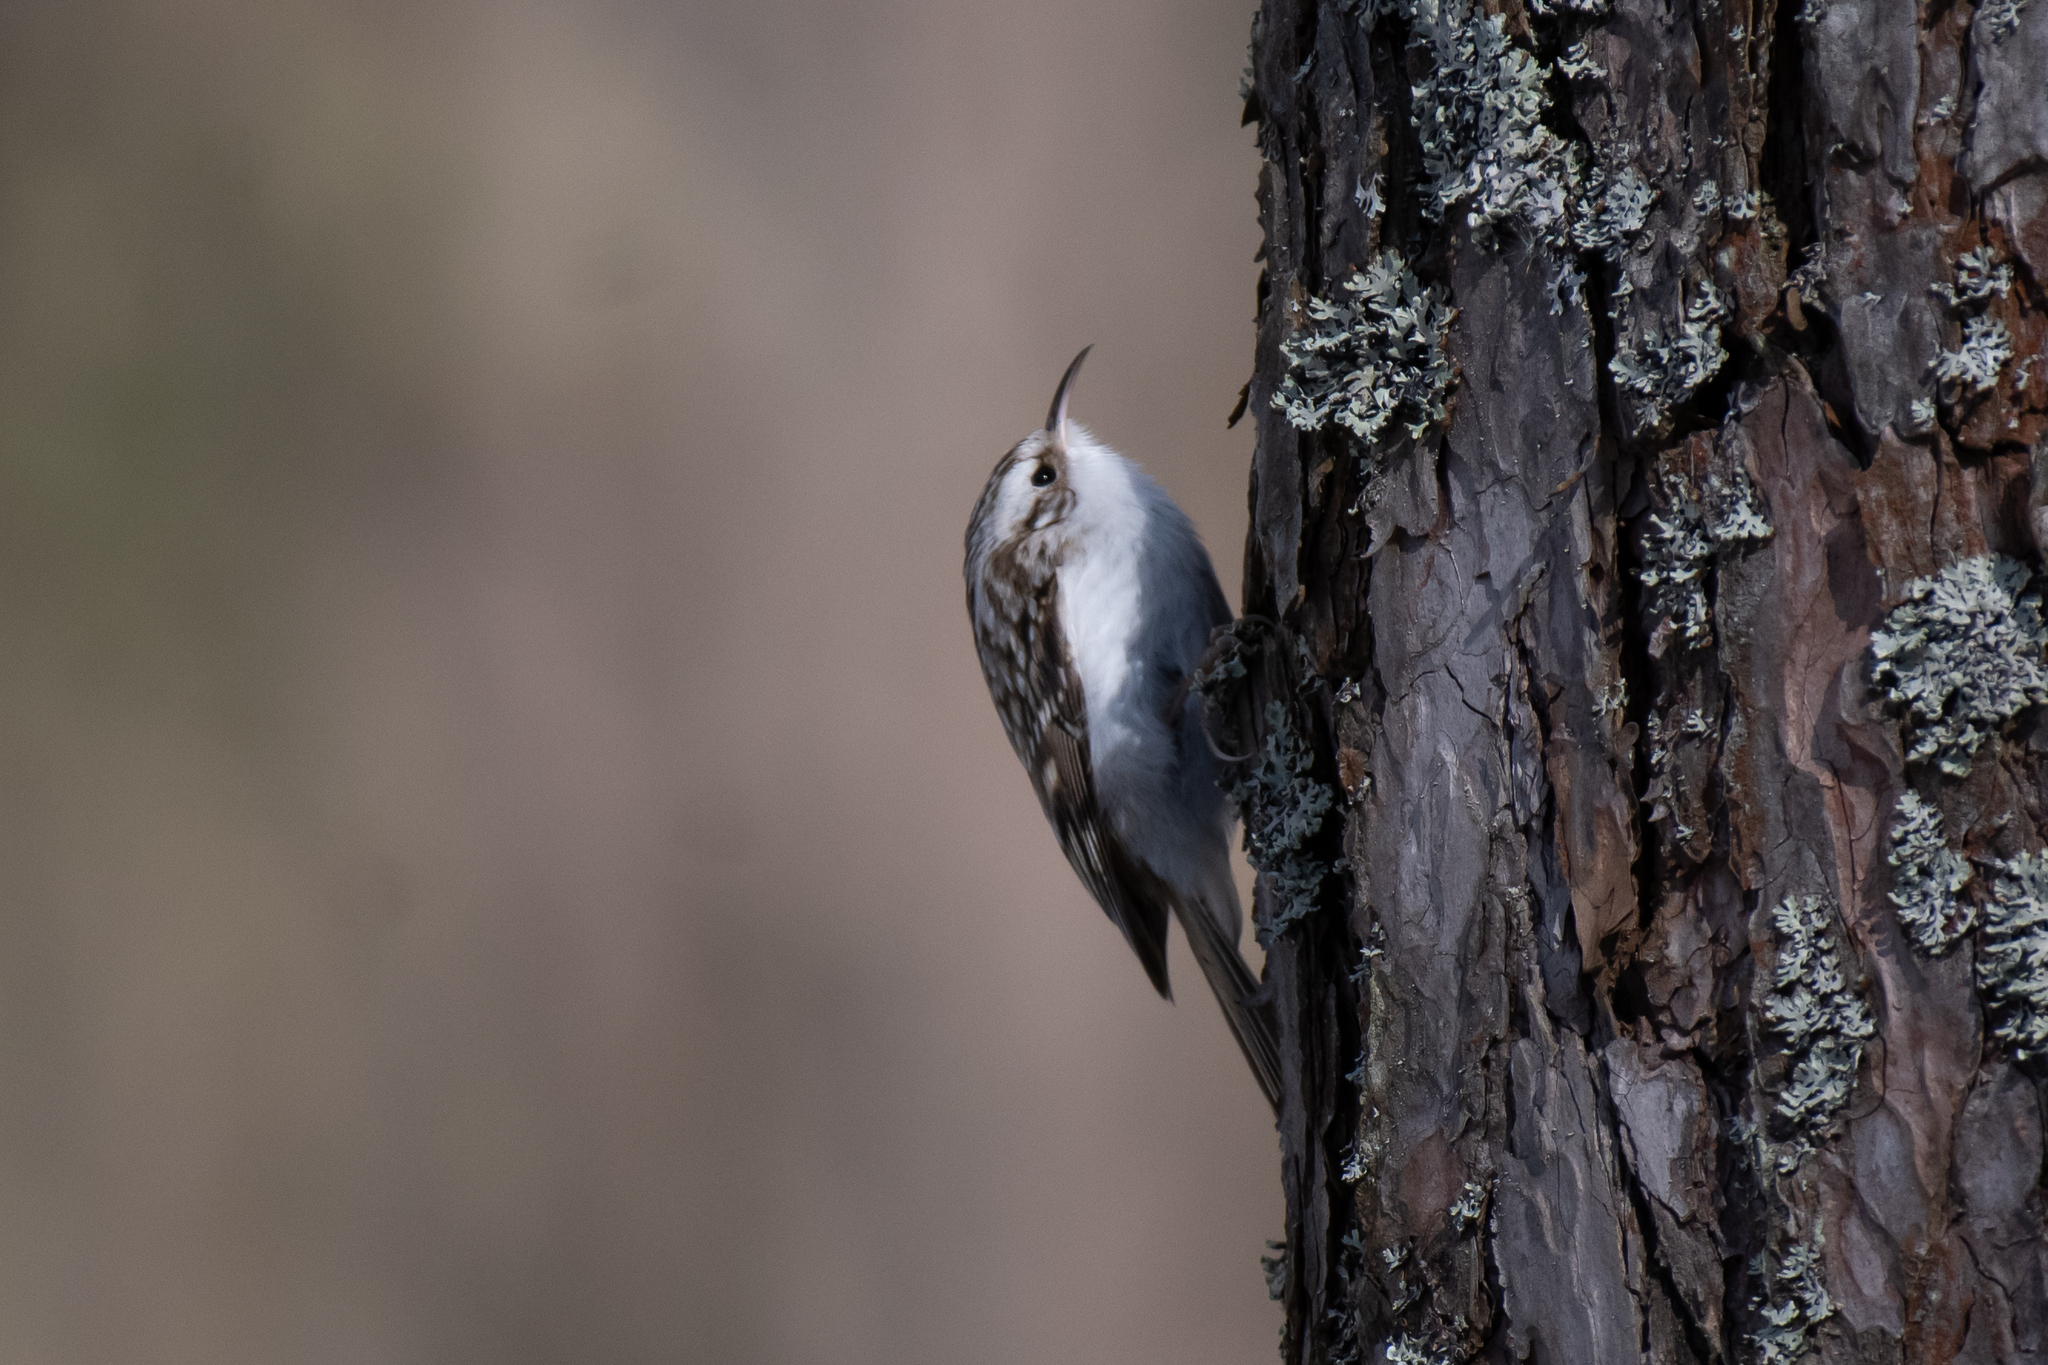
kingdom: Animalia
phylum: Chordata
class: Aves
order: Passeriformes
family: Certhiidae
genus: Certhia
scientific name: Certhia familiaris
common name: Eurasian treecreeper
